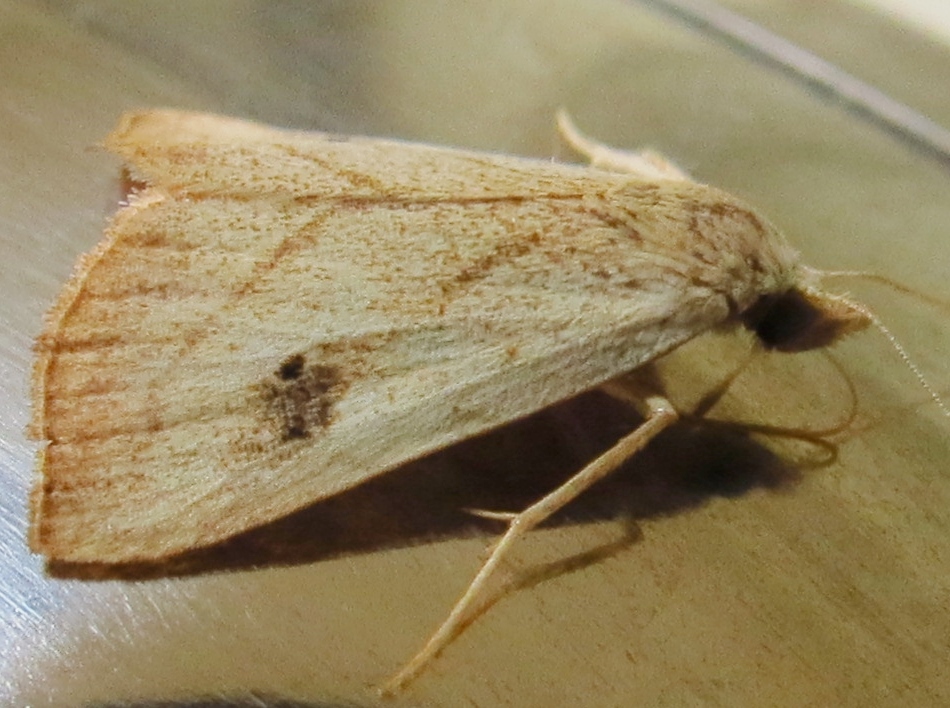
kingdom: Animalia
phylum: Arthropoda
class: Insecta
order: Lepidoptera
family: Erebidae
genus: Rivula
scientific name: Rivula propinqualis
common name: Spotted grass moth
